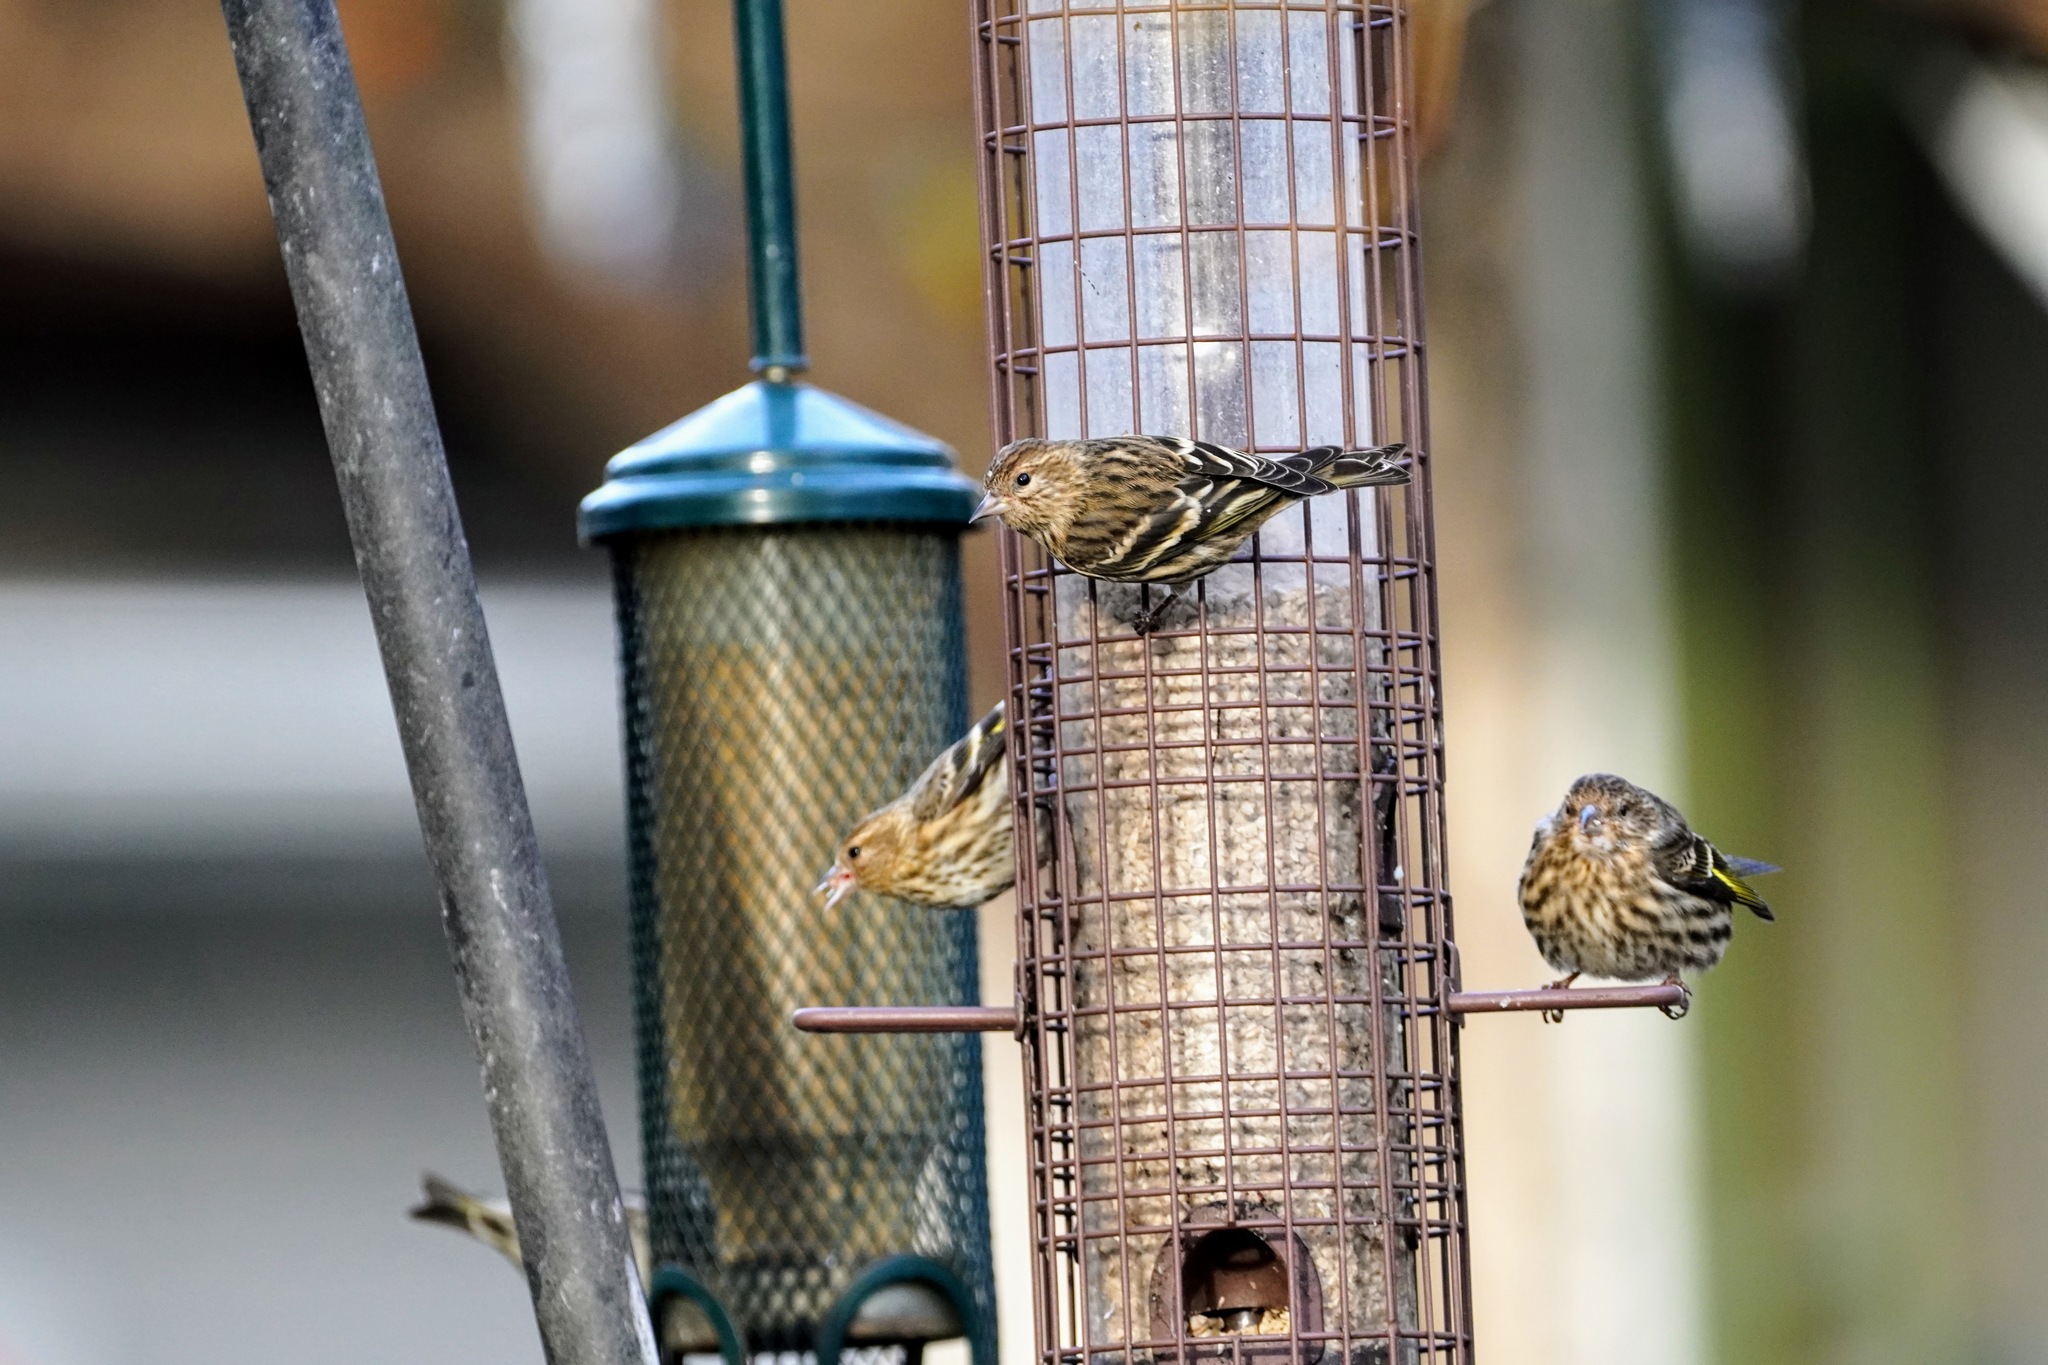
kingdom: Animalia
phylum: Chordata
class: Aves
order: Passeriformes
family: Fringillidae
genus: Spinus
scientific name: Spinus pinus
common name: Pine siskin
